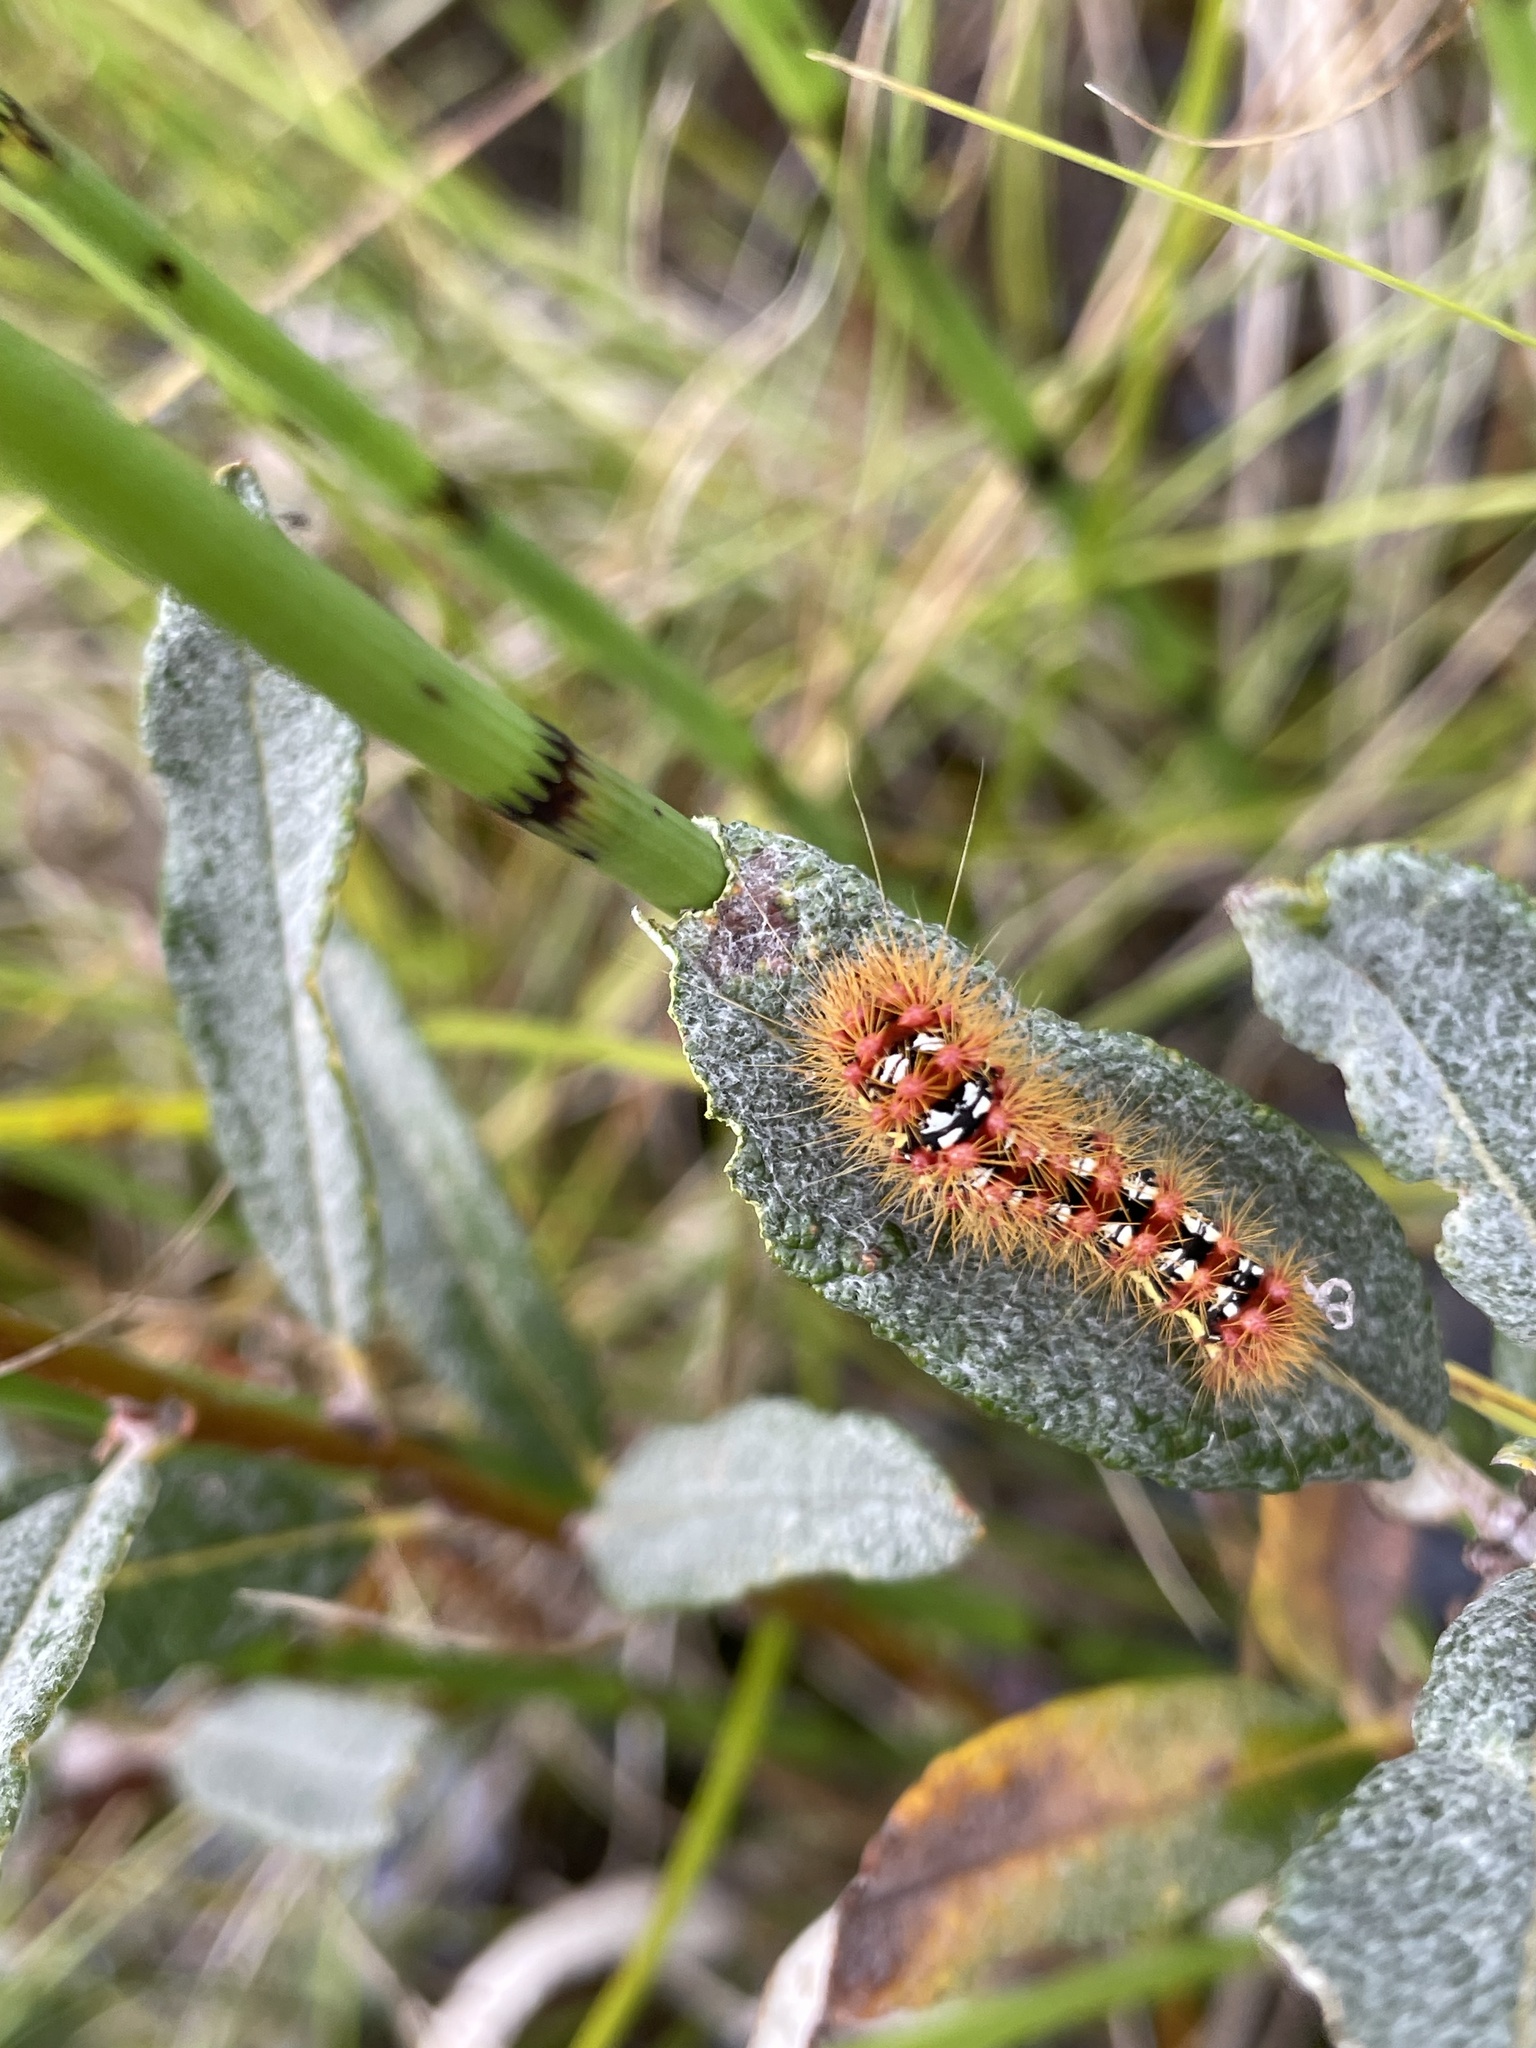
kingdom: Animalia
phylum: Arthropoda
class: Insecta
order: Lepidoptera
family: Noctuidae
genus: Acronicta
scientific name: Acronicta oblinita
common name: Smeared dagger
